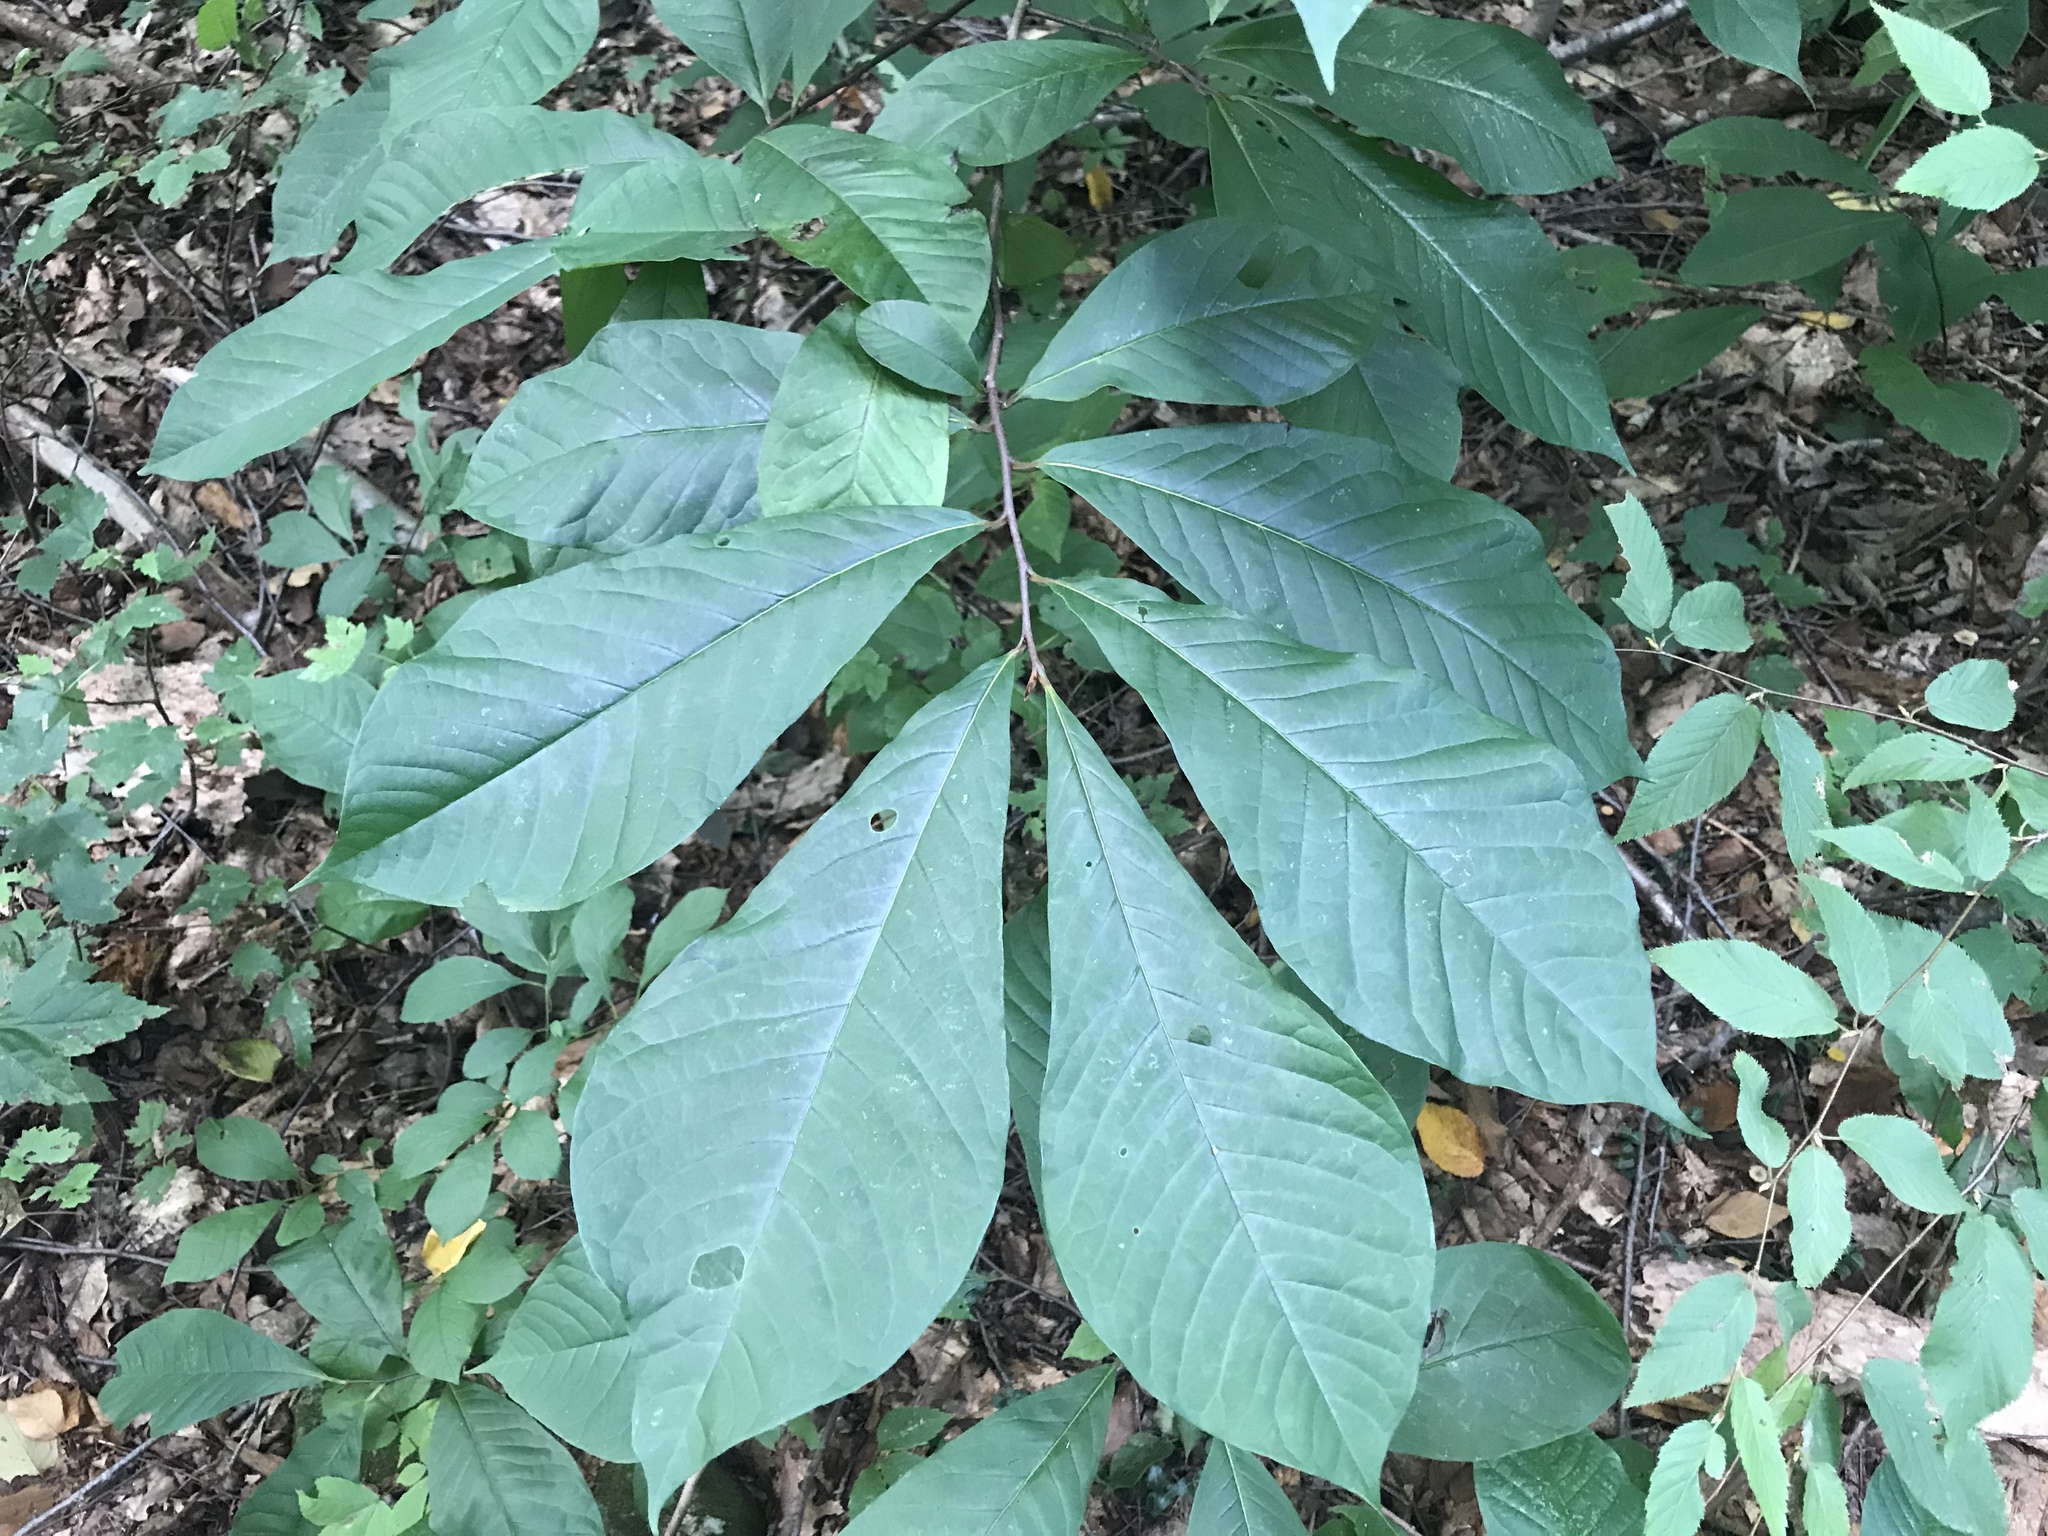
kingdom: Plantae
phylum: Tracheophyta
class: Magnoliopsida
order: Magnoliales
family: Annonaceae
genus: Asimina
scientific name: Asimina triloba
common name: Dog-banana
